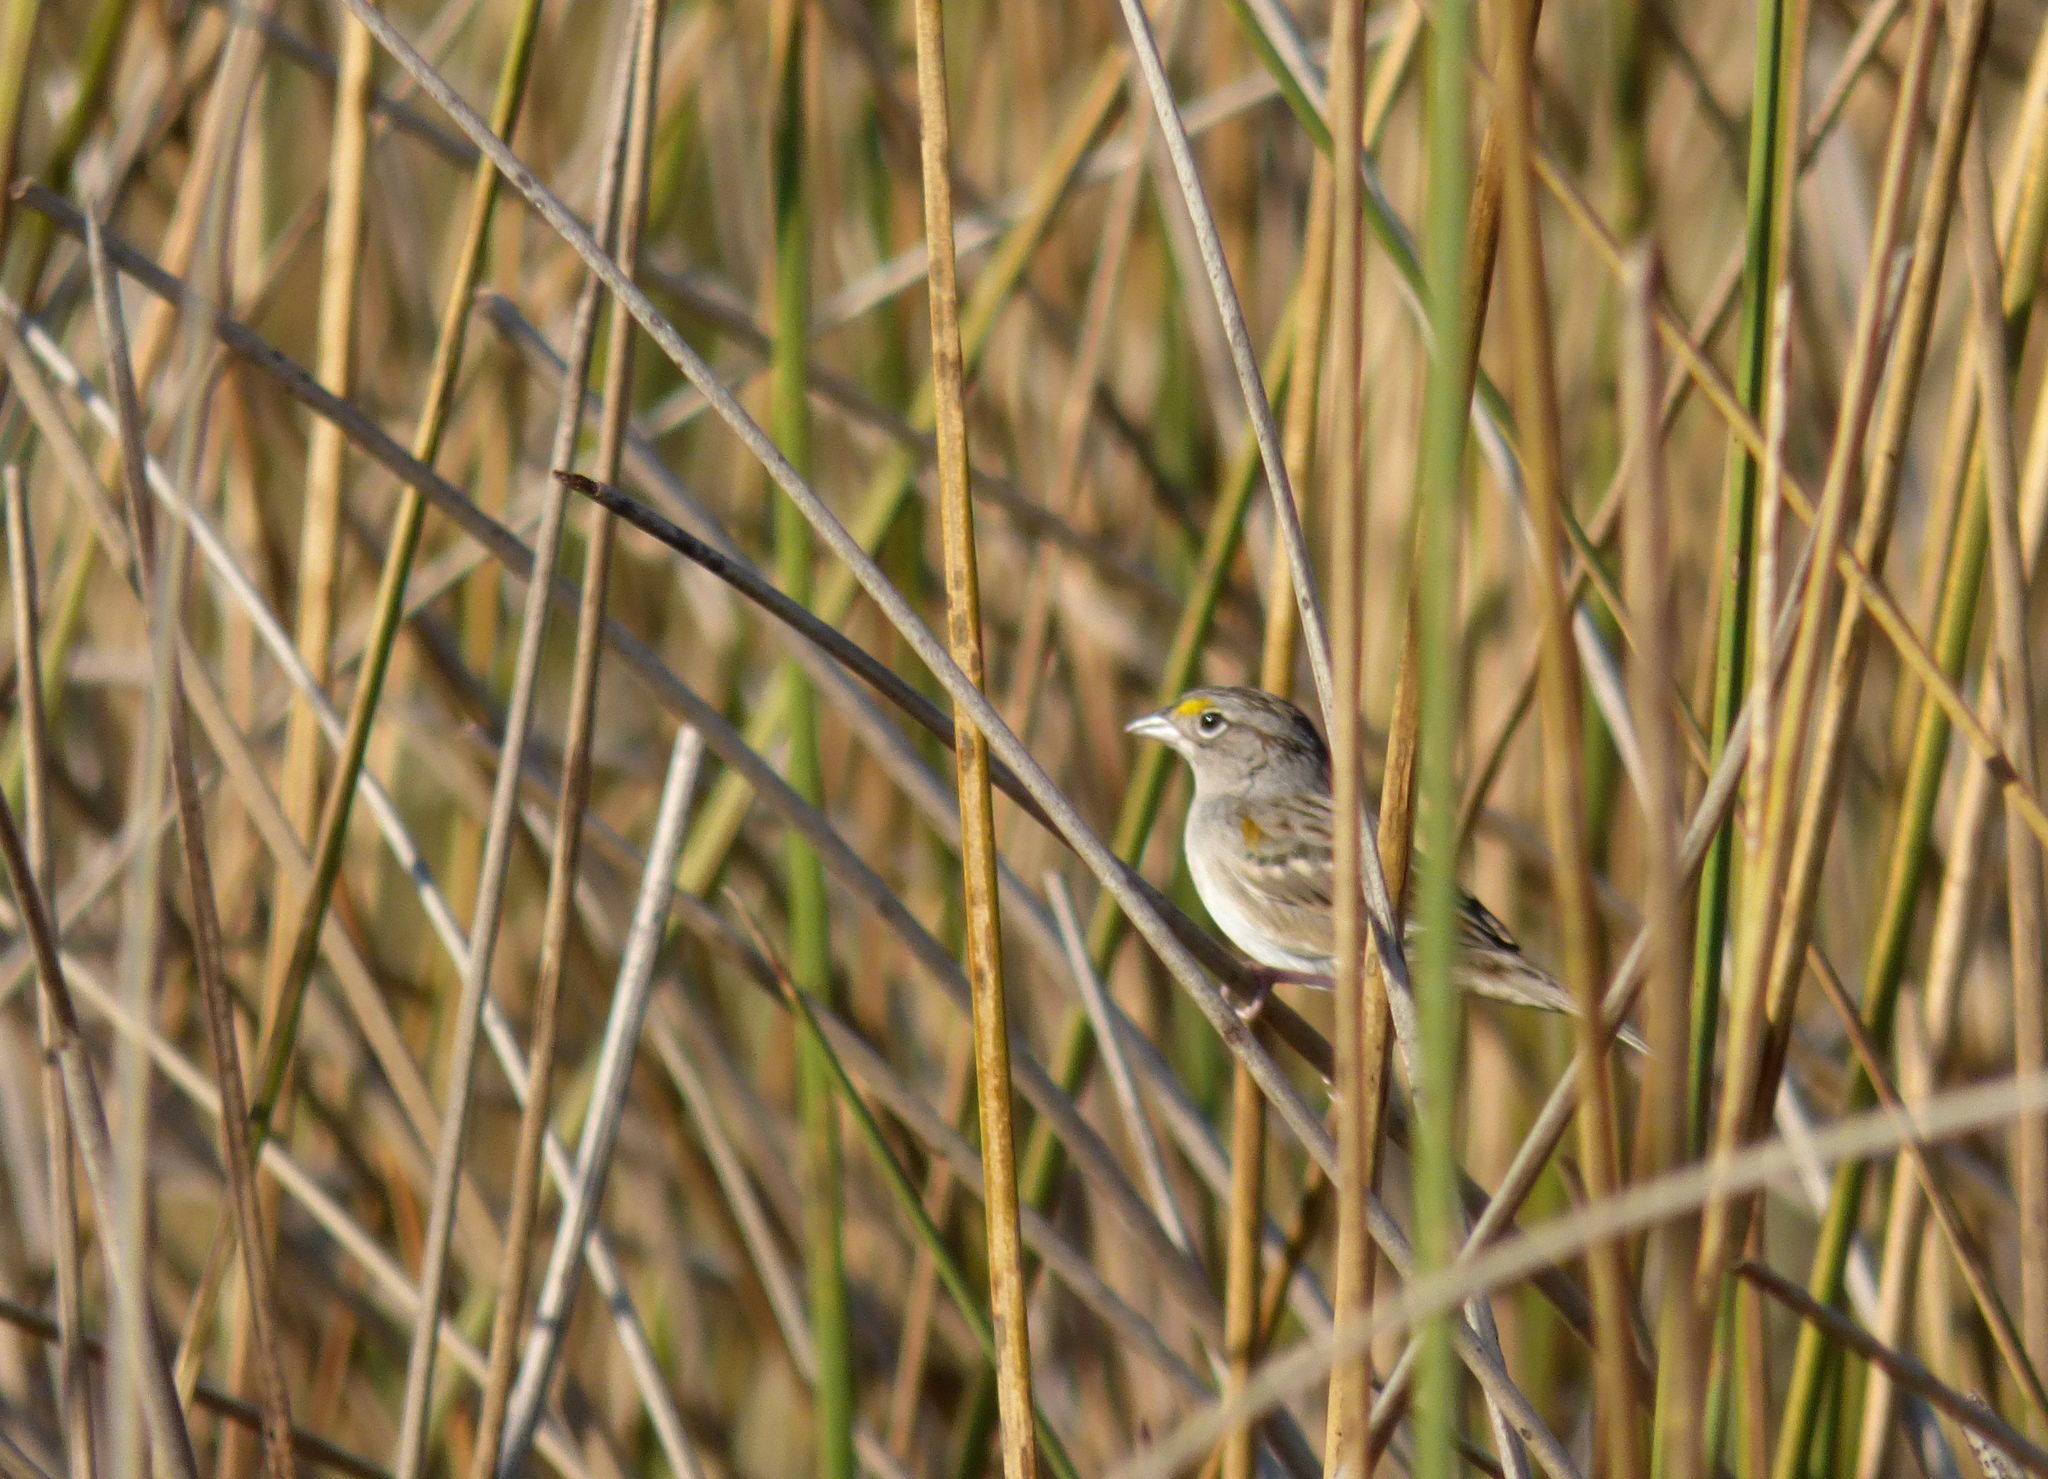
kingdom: Animalia
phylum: Chordata
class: Aves
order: Passeriformes
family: Passerellidae
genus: Ammodramus
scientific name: Ammodramus humeralis
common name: Grassland sparrow
